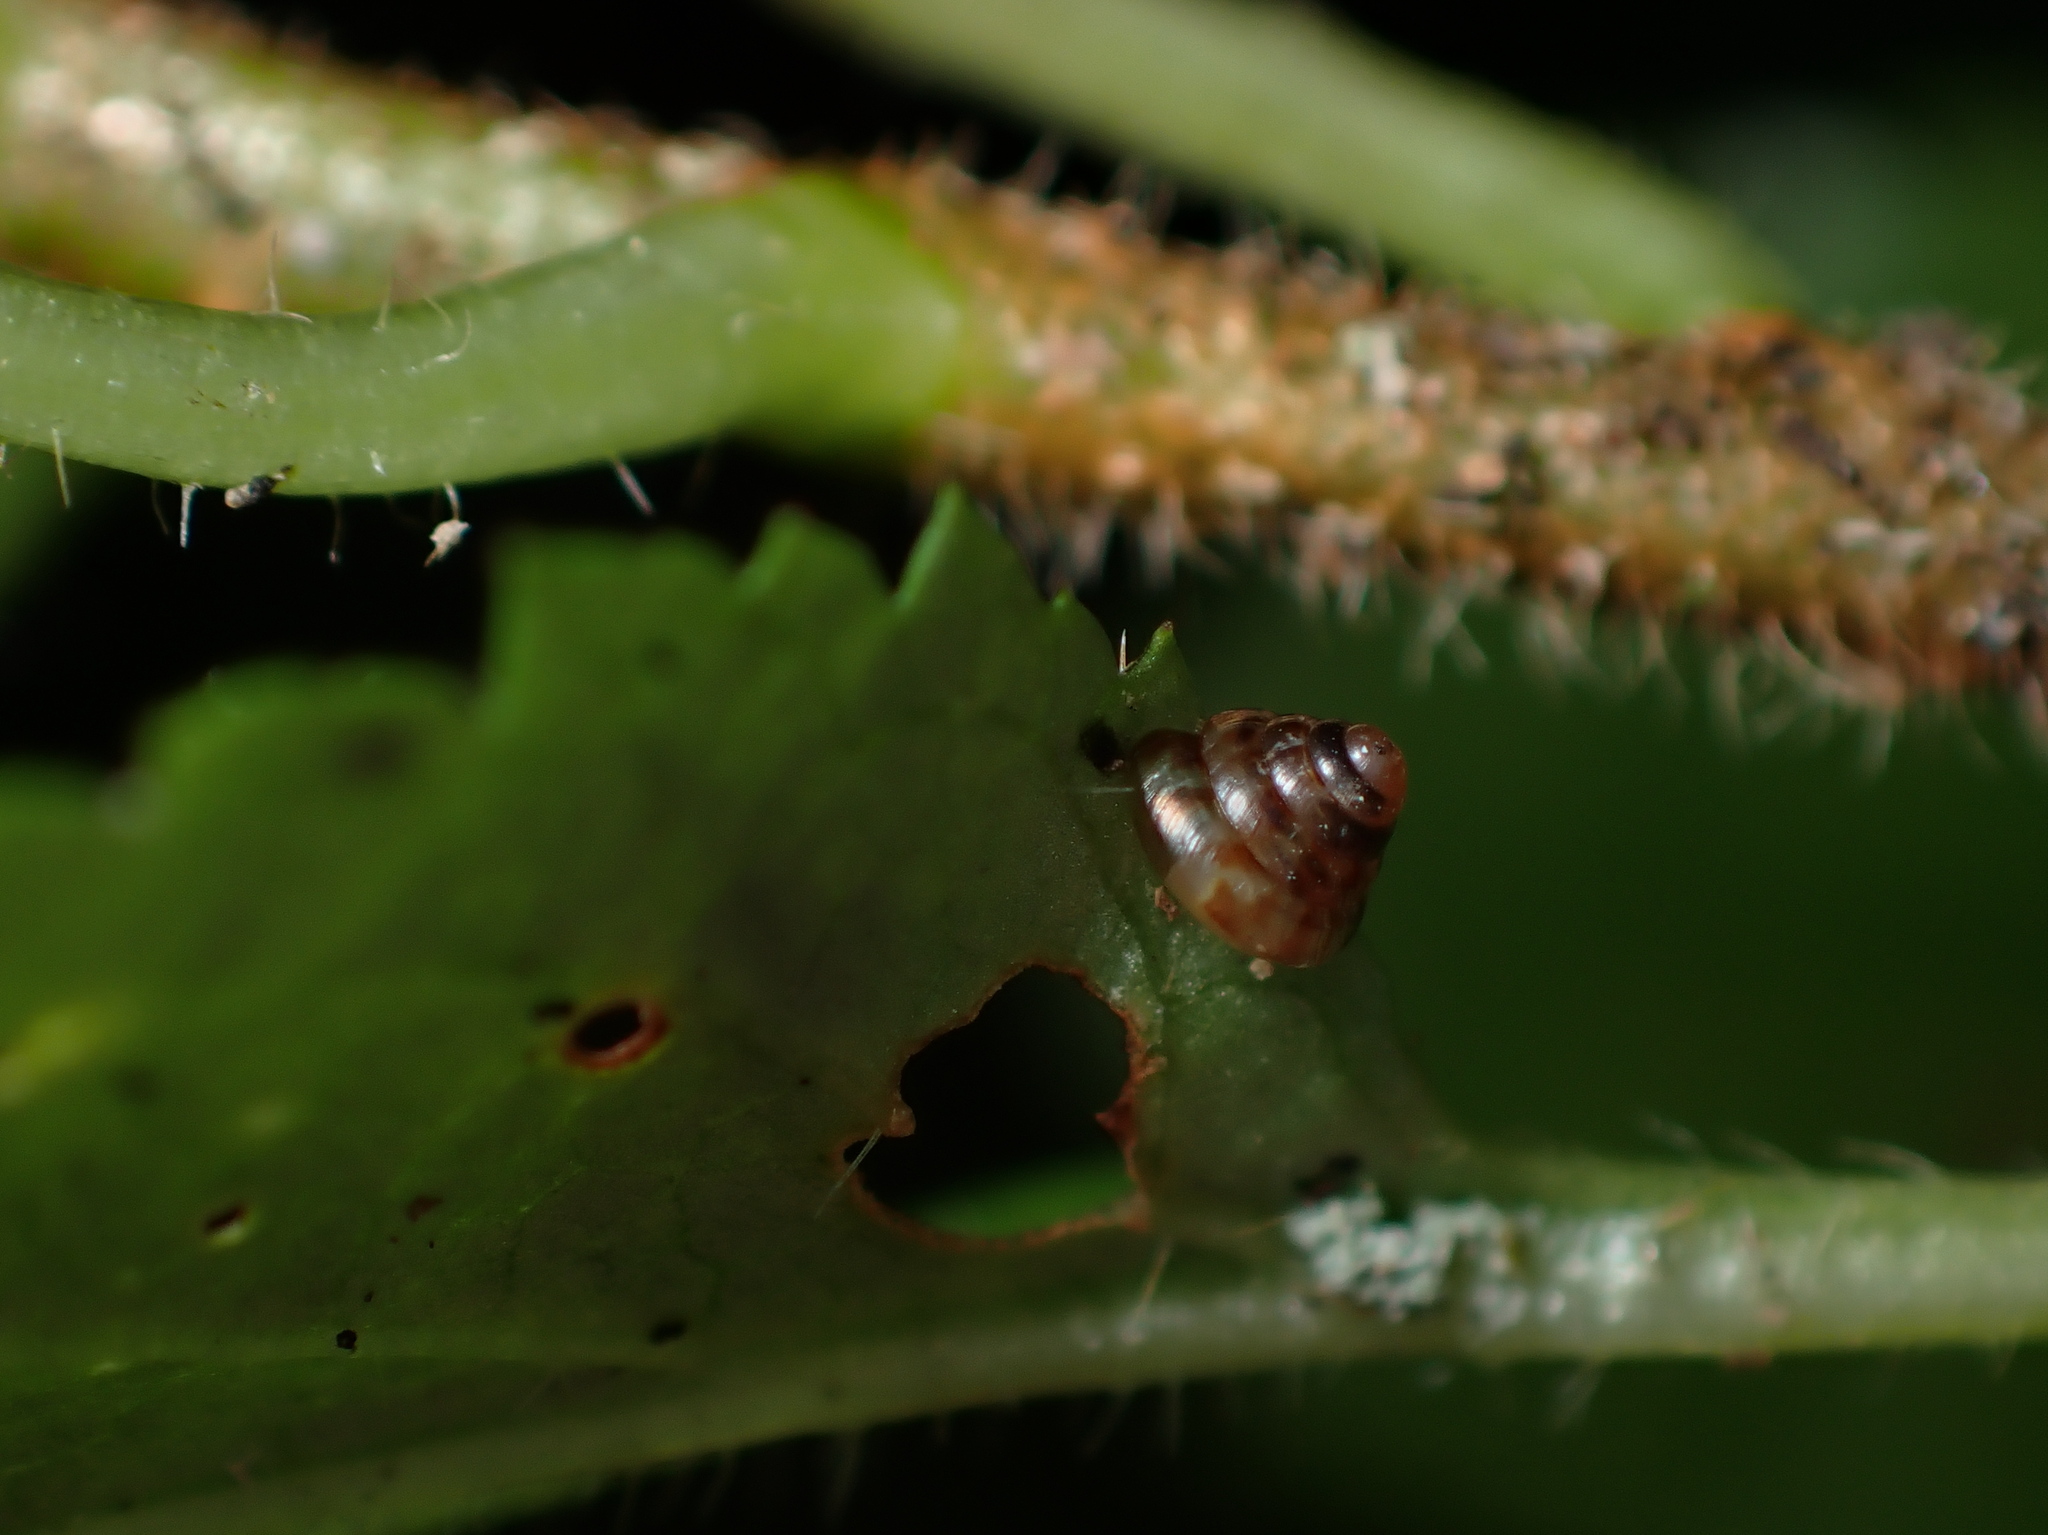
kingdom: Animalia
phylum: Mollusca
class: Gastropoda
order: Stylommatophora
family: Punctidae
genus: Phrixgnathus
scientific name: Phrixgnathus erigone
